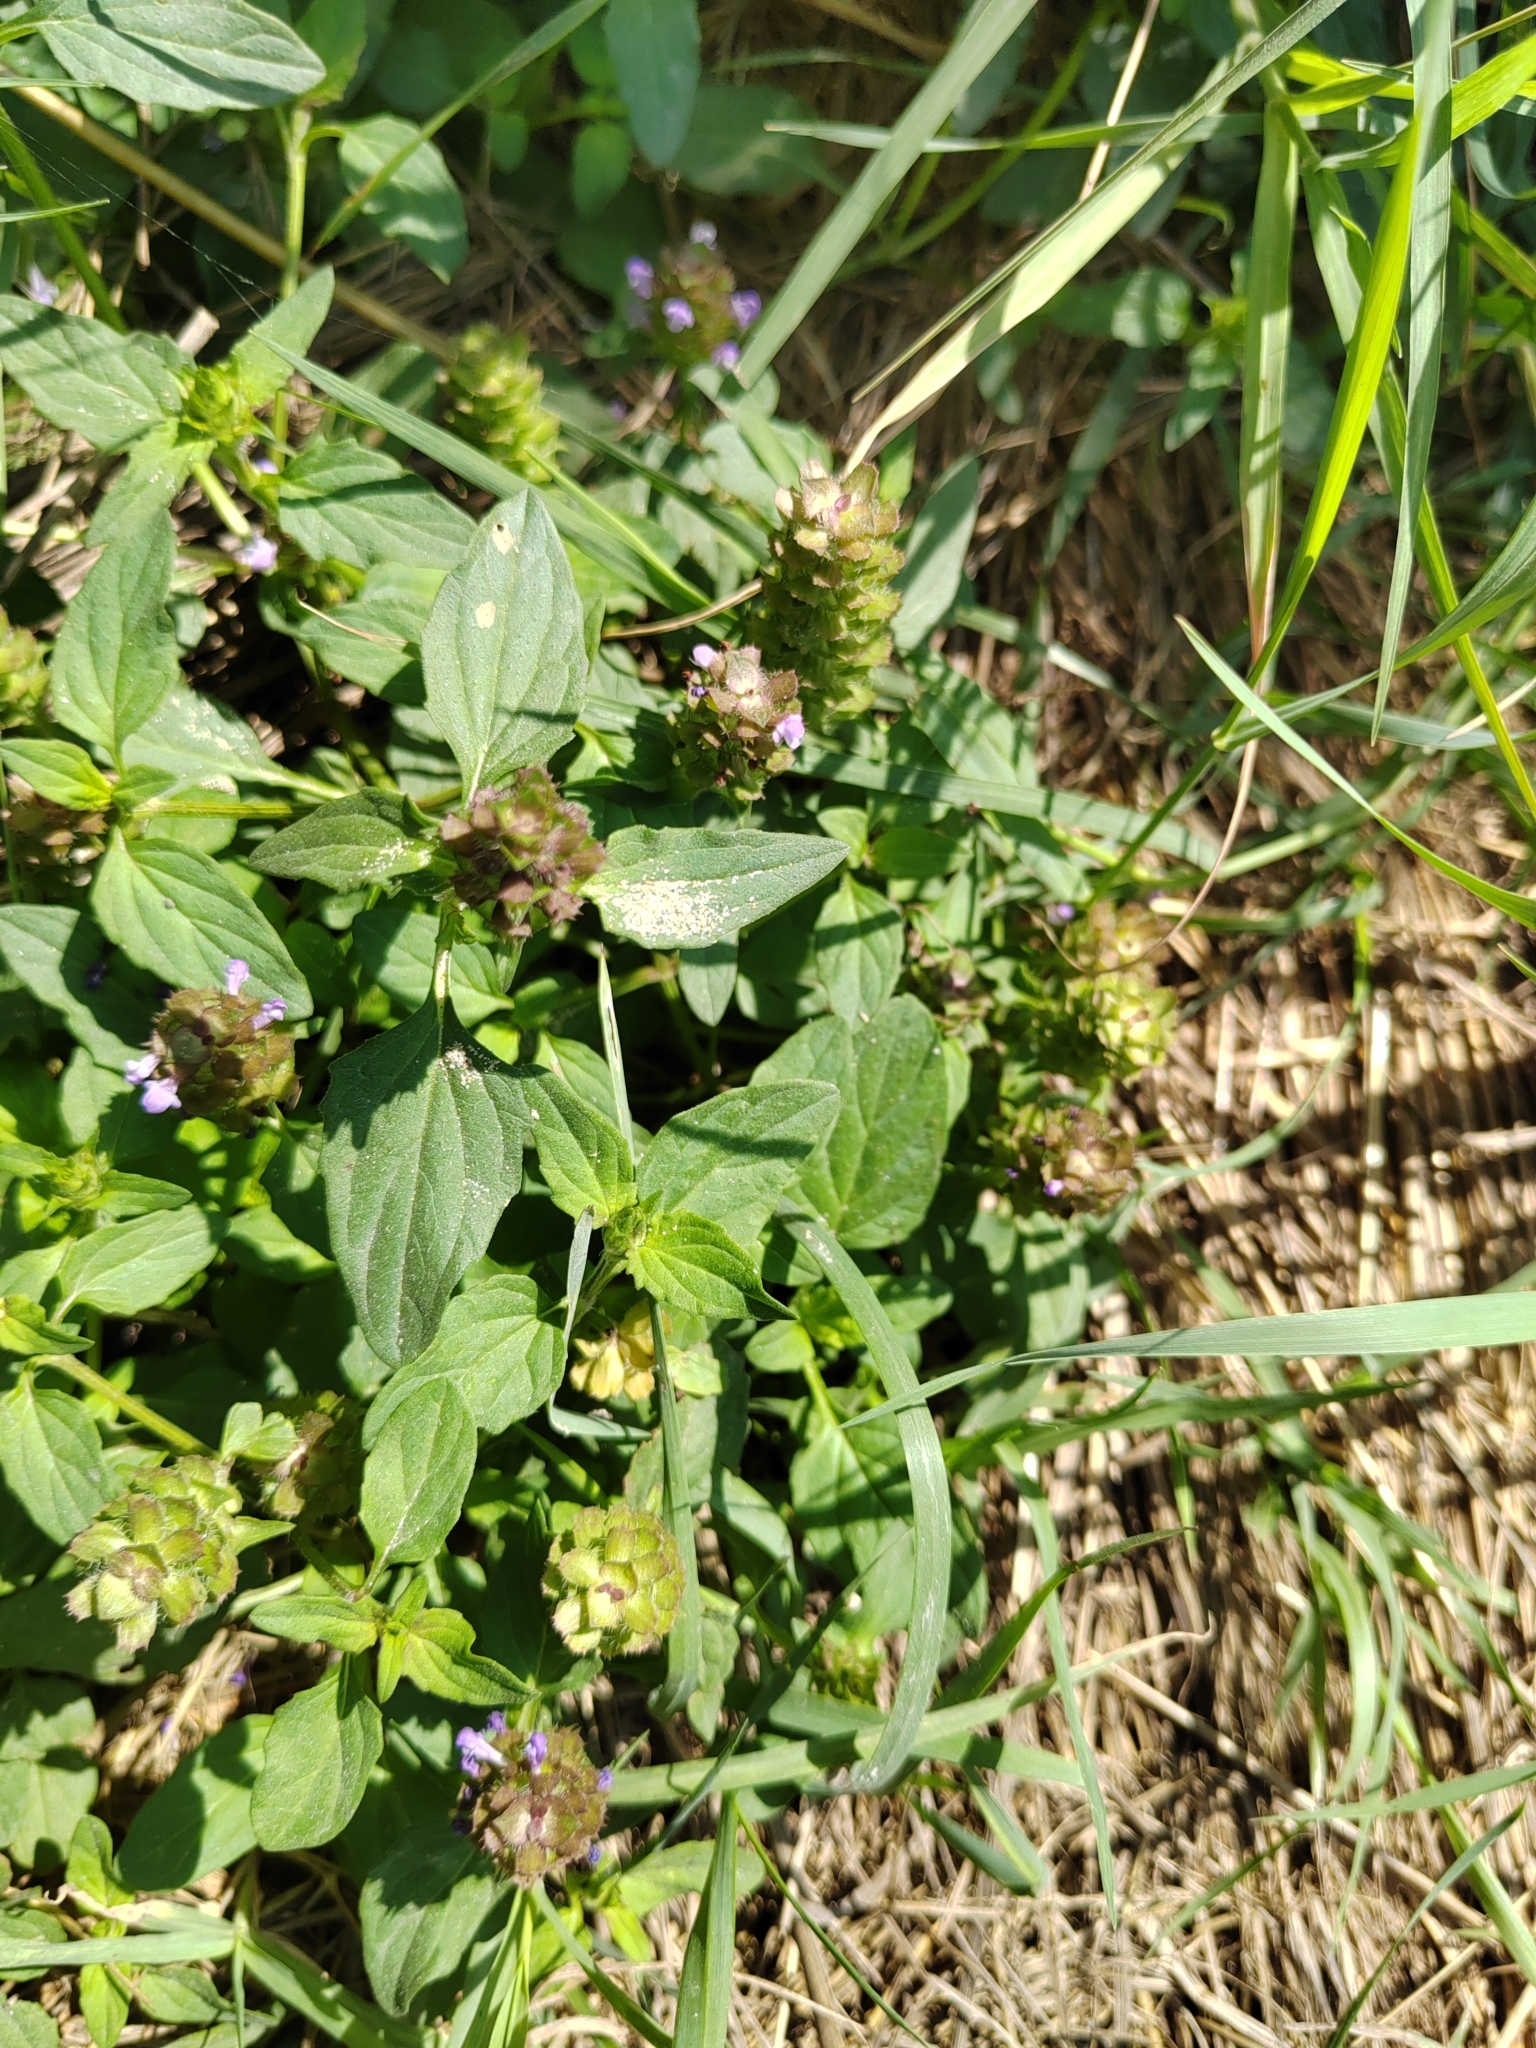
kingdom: Plantae
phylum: Tracheophyta
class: Magnoliopsida
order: Lamiales
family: Lamiaceae
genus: Prunella
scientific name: Prunella vulgaris
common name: Heal-all
